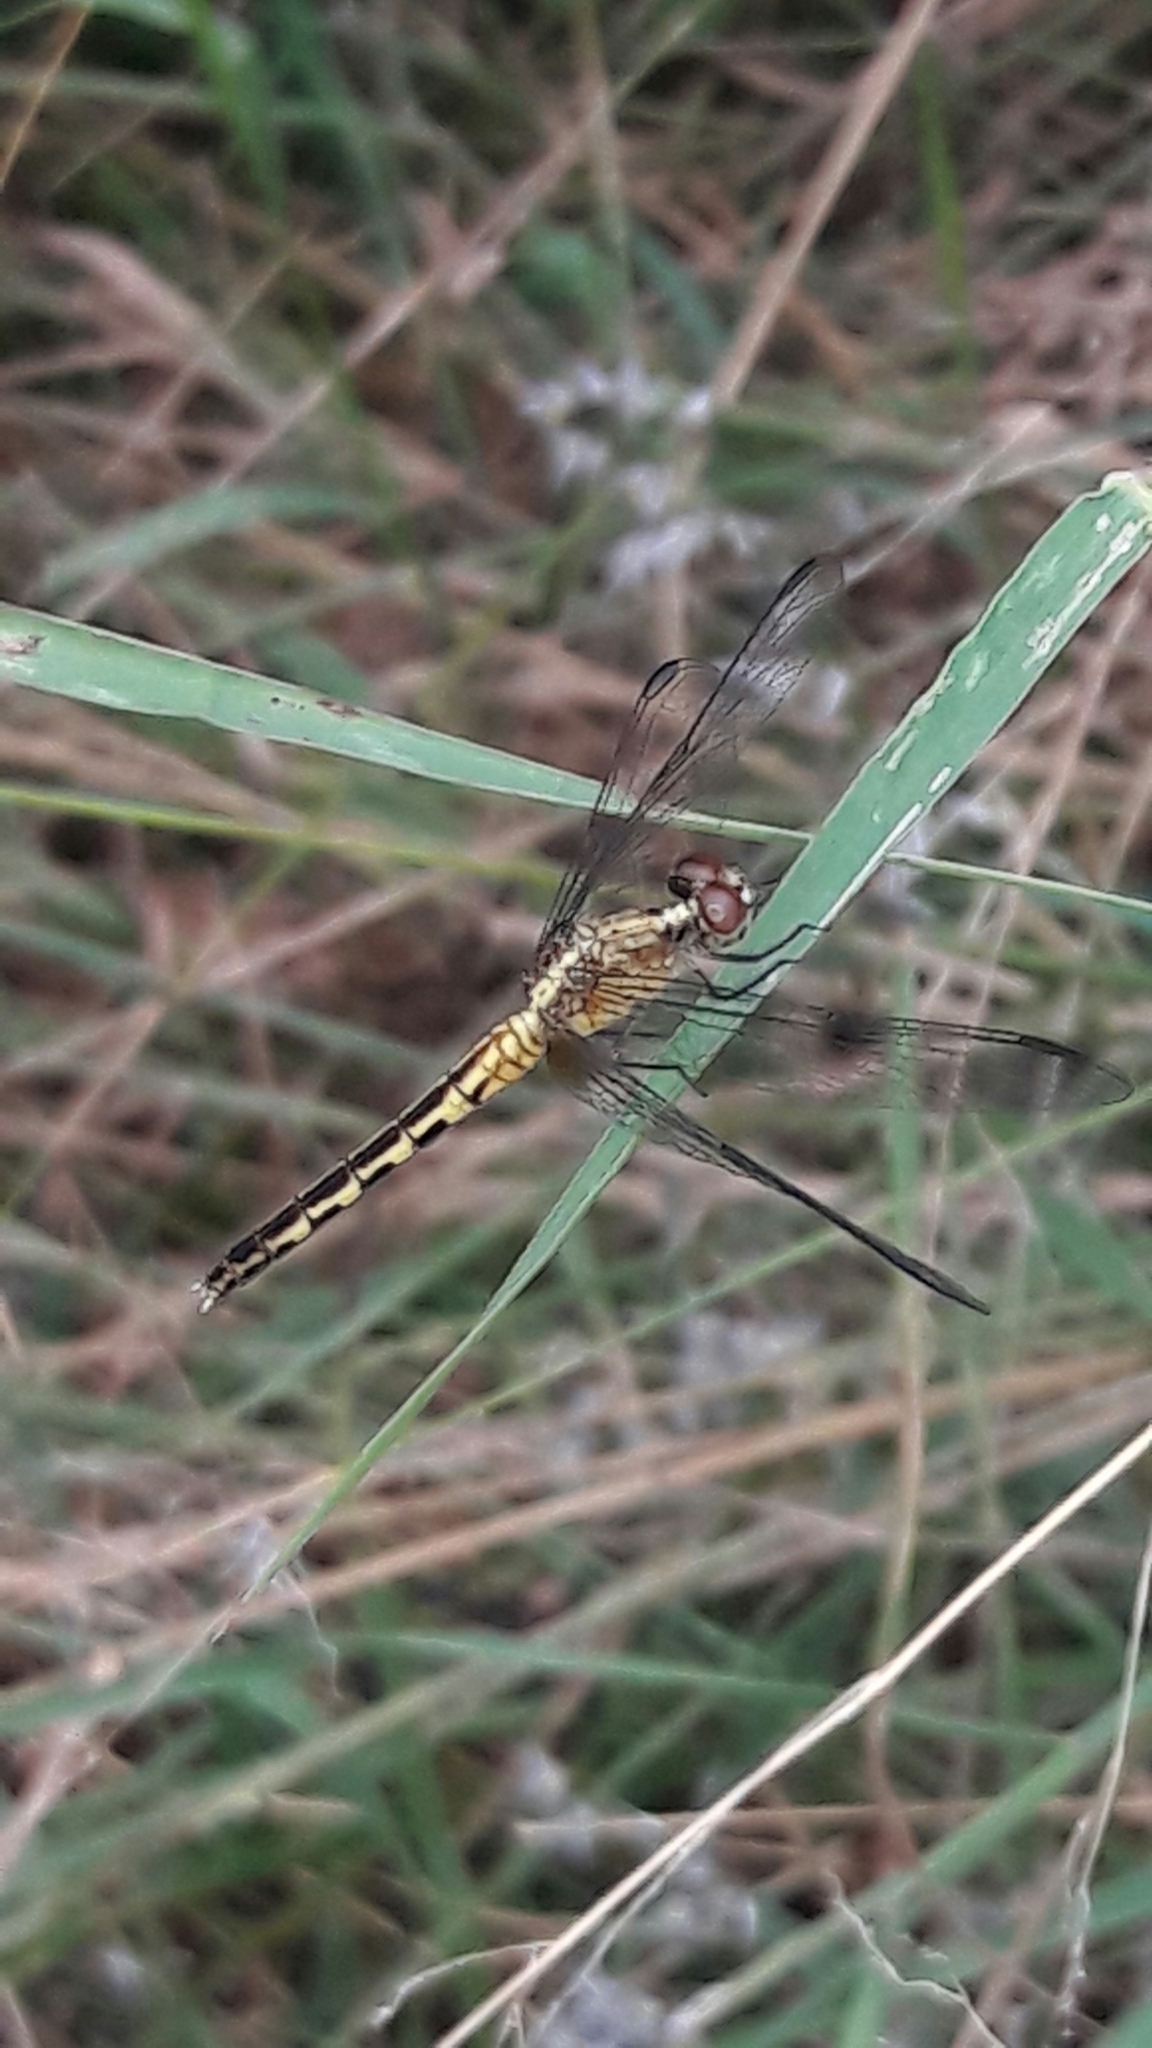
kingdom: Animalia
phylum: Arthropoda
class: Insecta
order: Odonata
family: Libellulidae
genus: Erythrodiplax
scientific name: Erythrodiplax umbrata
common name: Band-winged dragonlet
